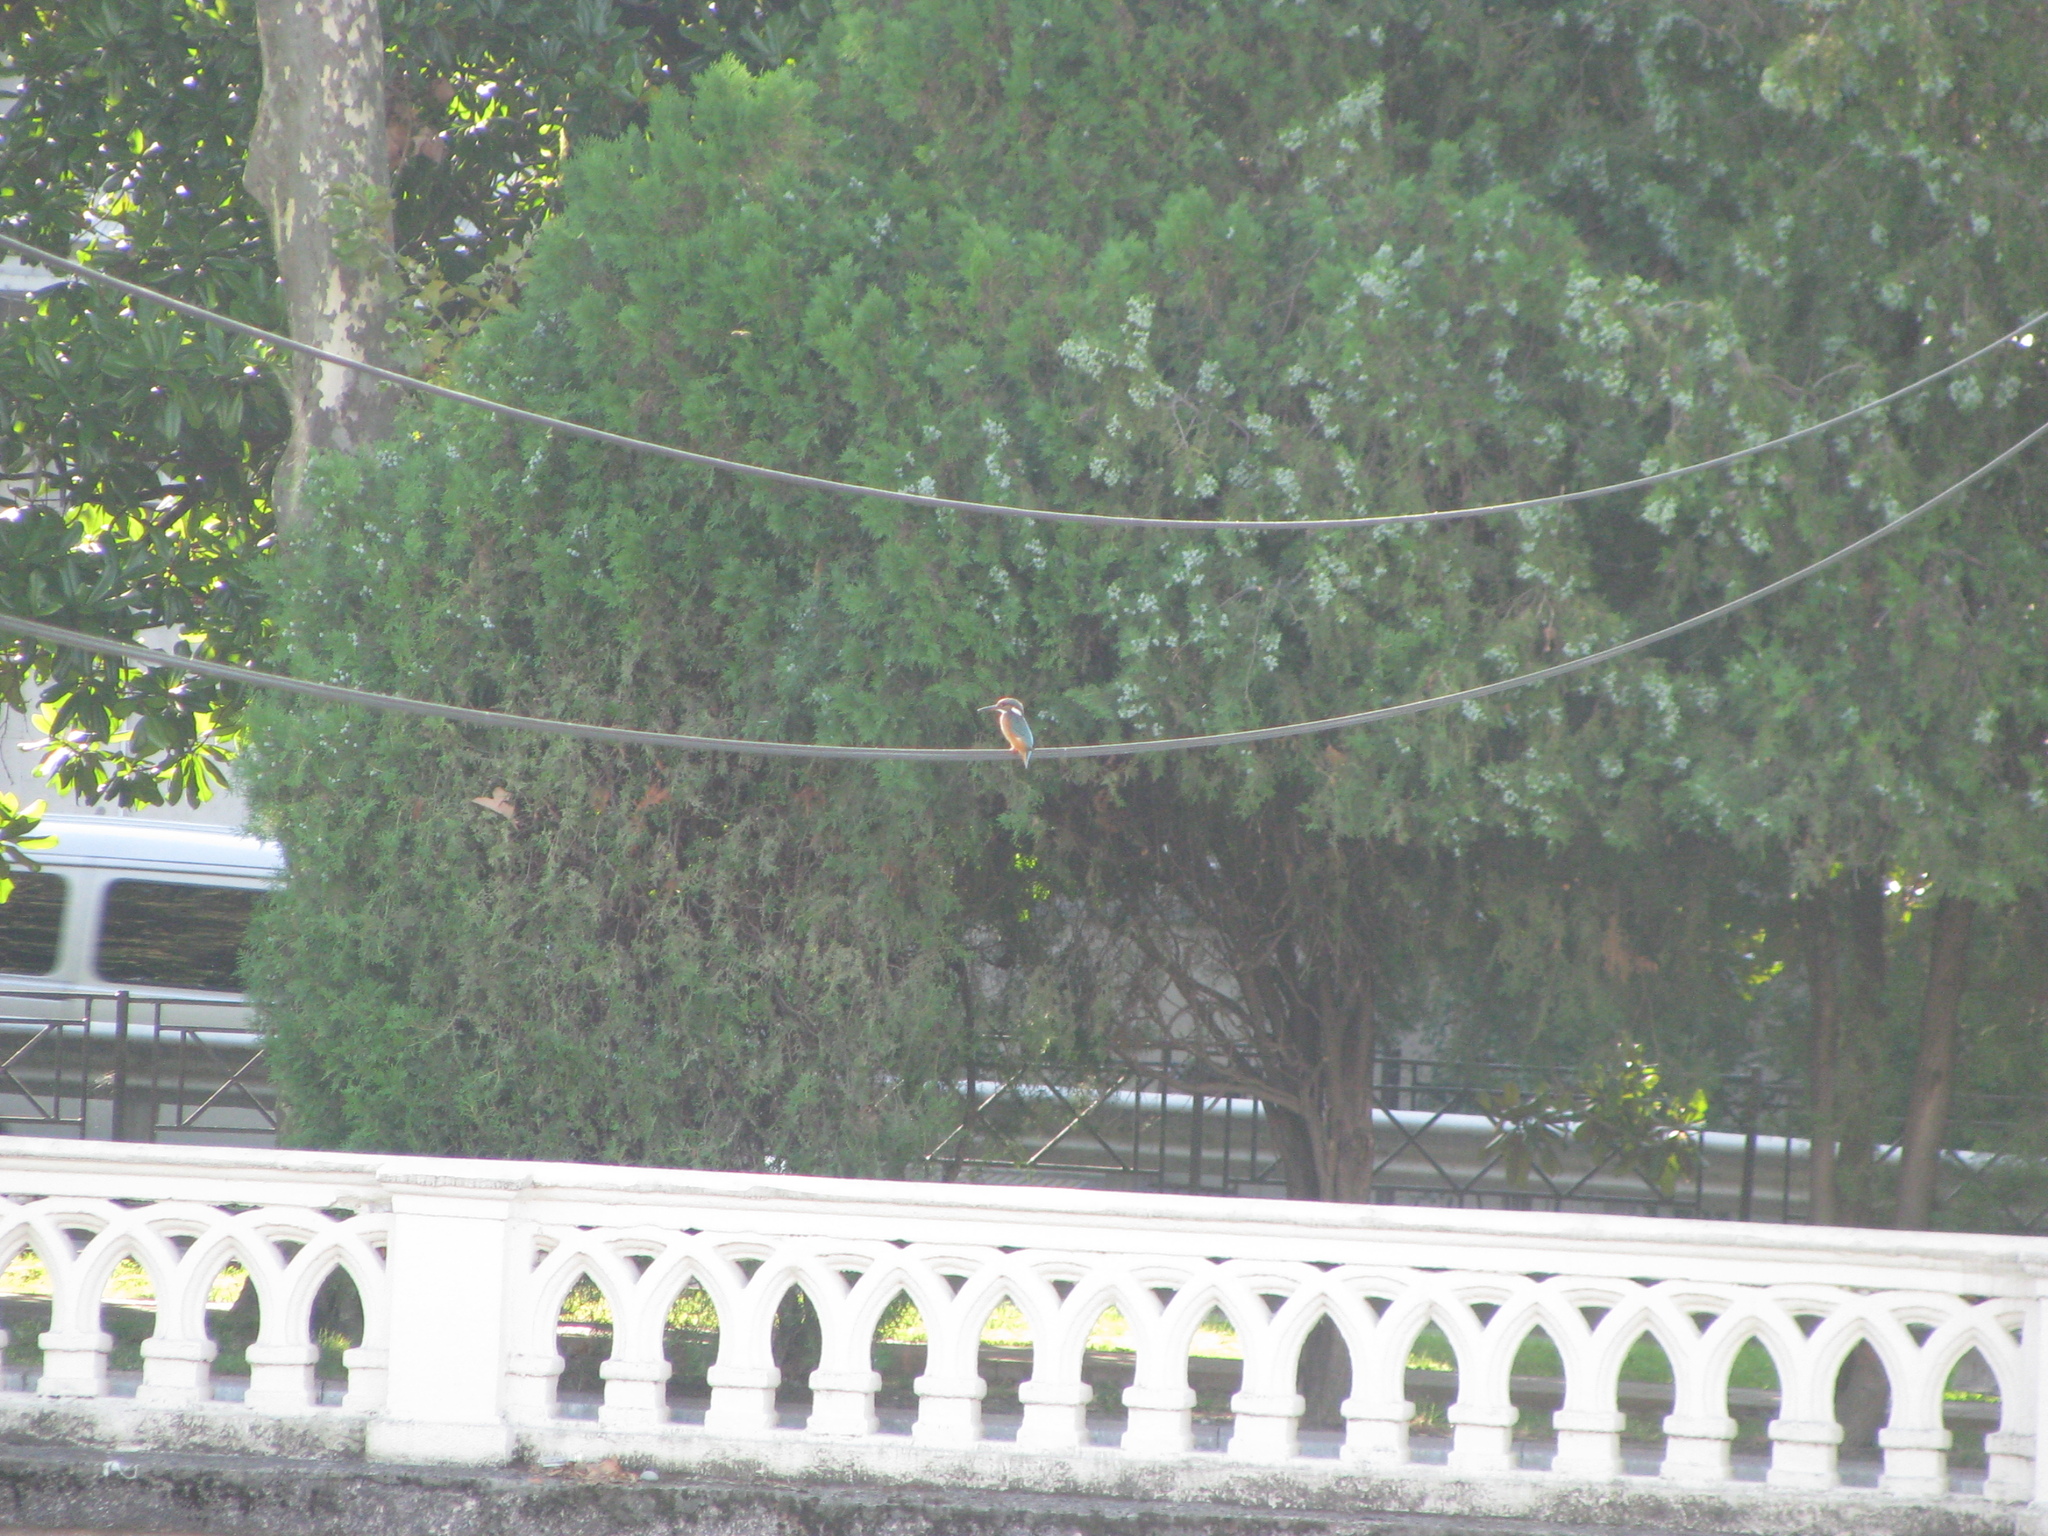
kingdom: Animalia
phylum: Chordata
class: Aves
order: Coraciiformes
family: Alcedinidae
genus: Alcedo
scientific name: Alcedo atthis
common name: Common kingfisher
